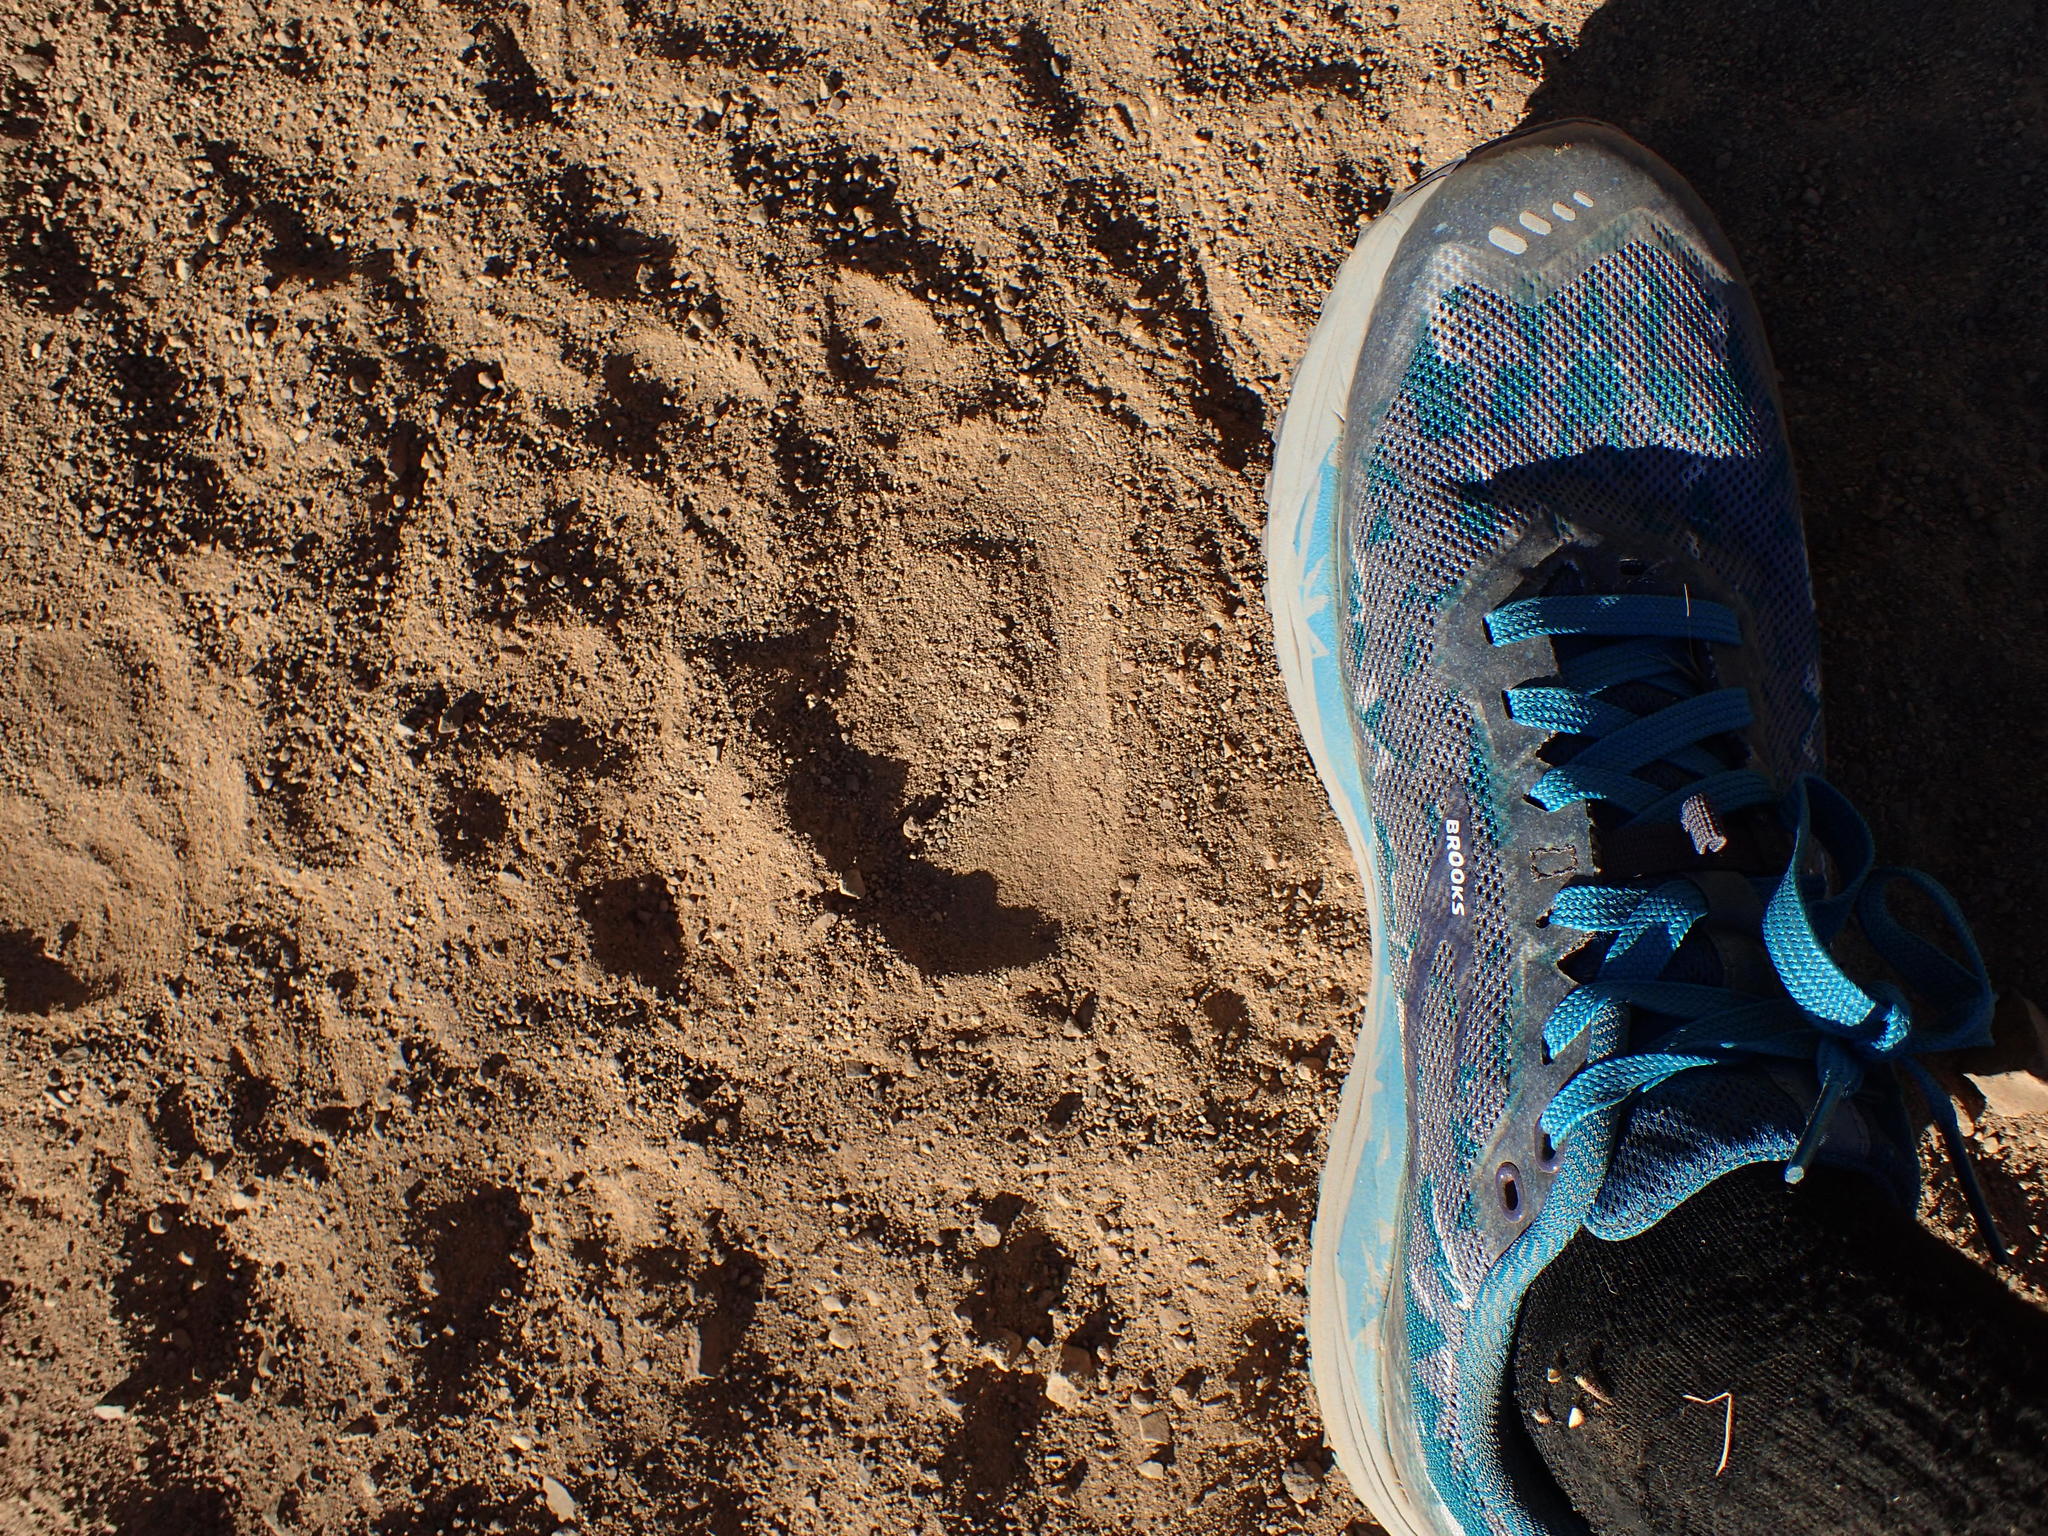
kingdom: Animalia
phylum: Chordata
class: Mammalia
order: Carnivora
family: Ursidae
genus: Ursus
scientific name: Ursus americanus
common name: American black bear
